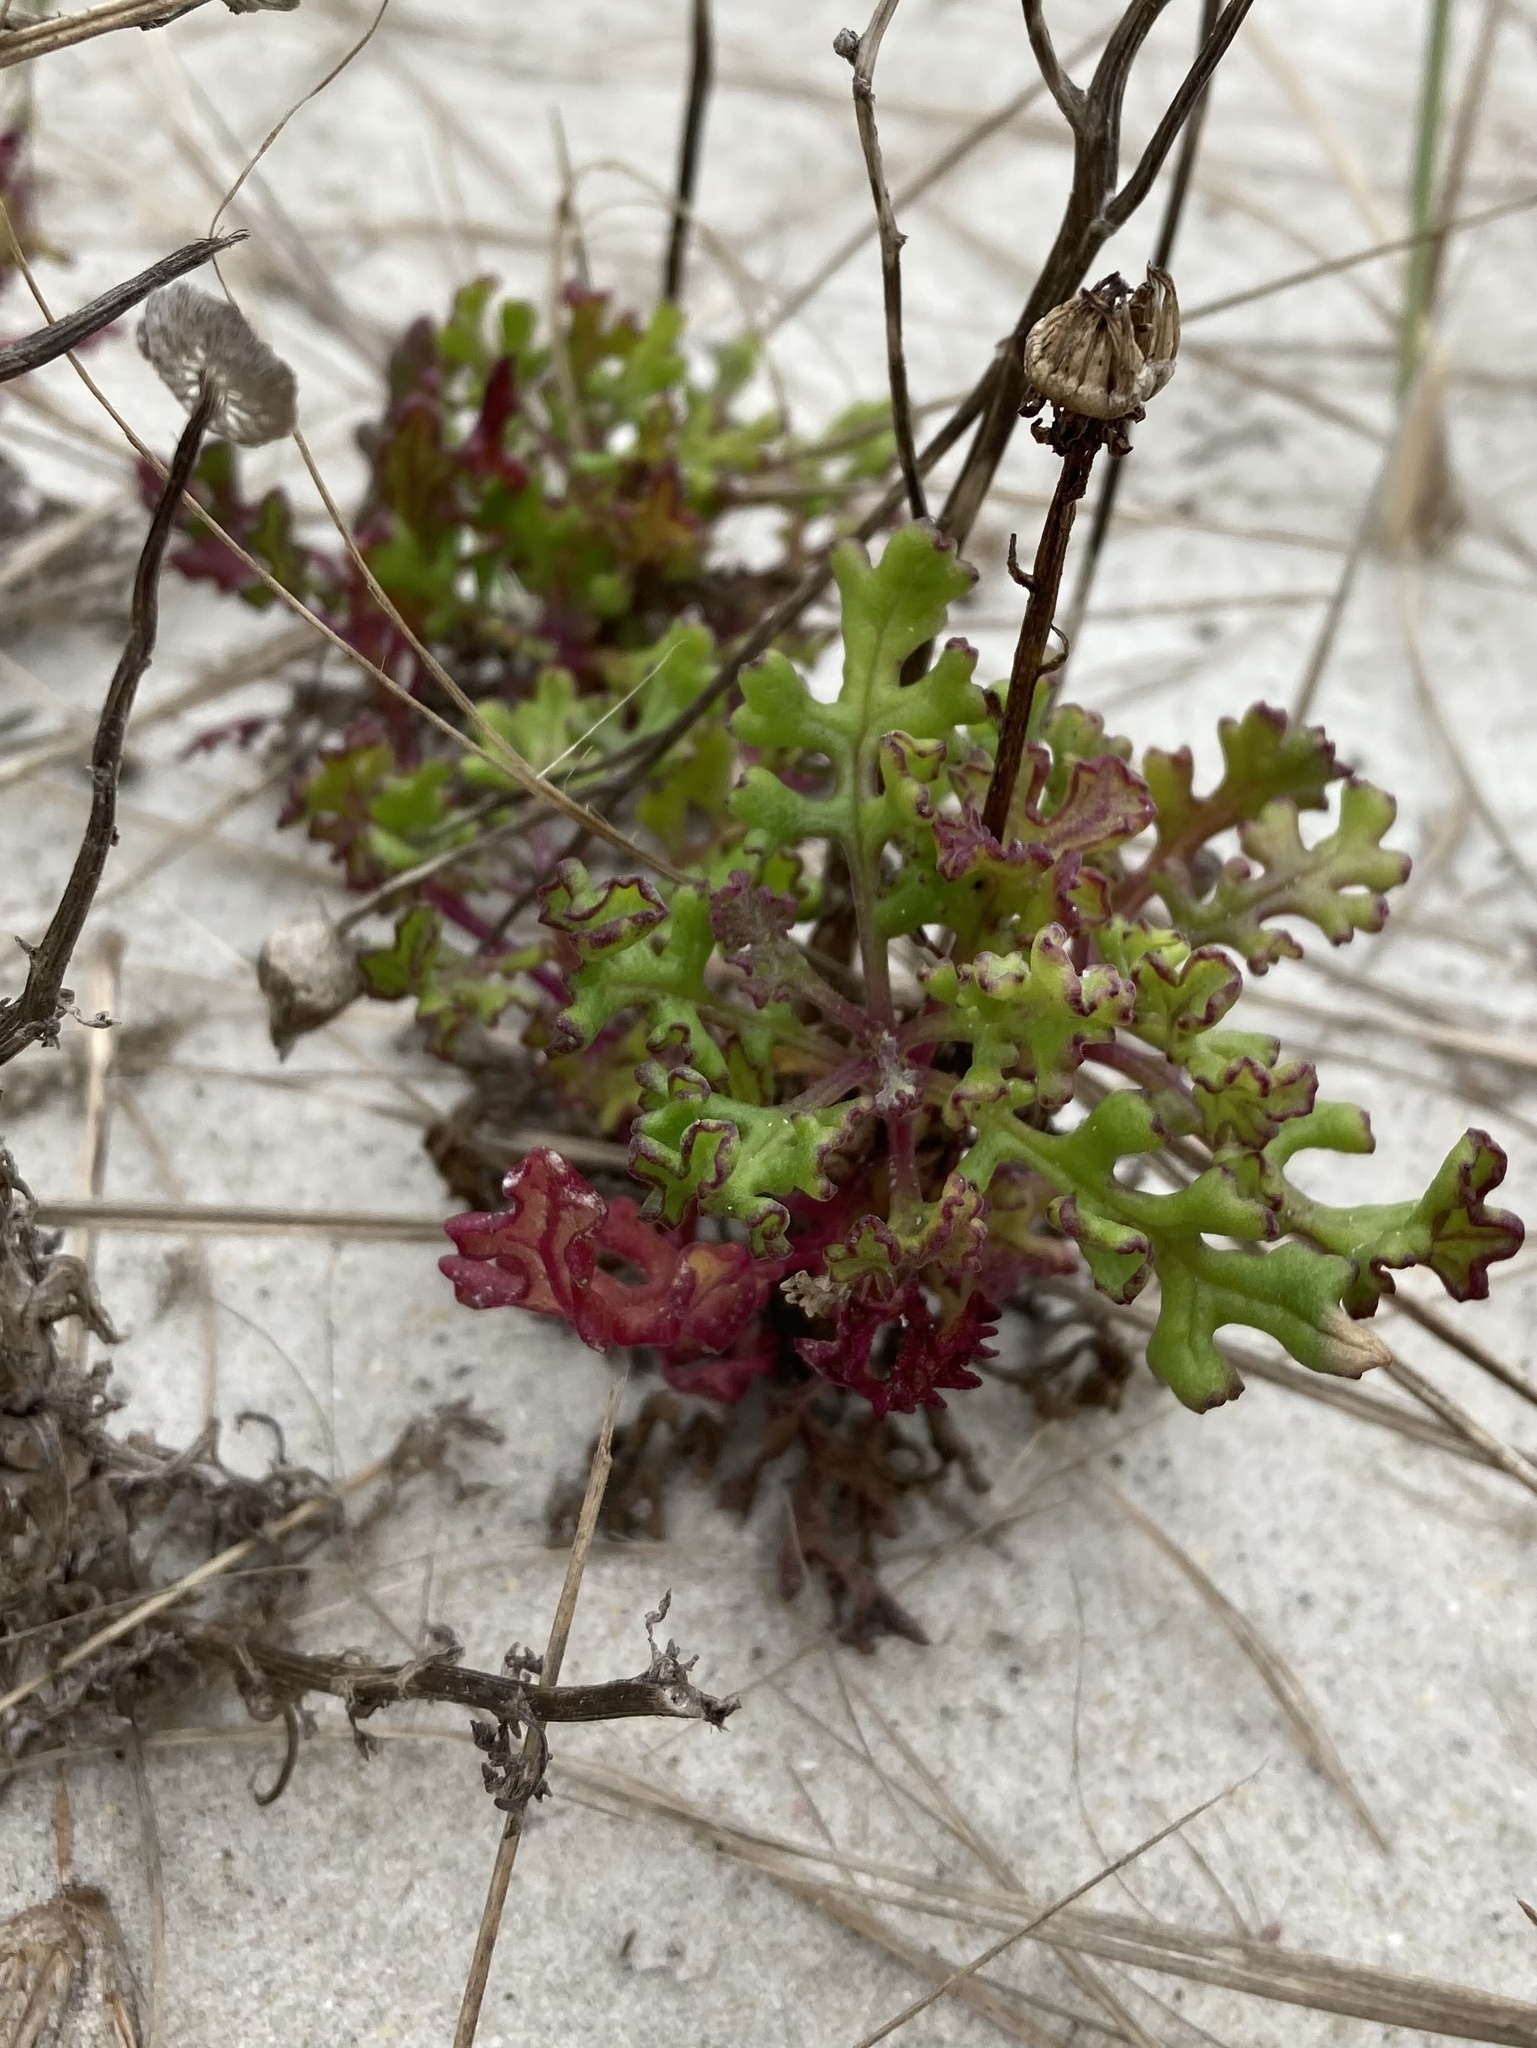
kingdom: Plantae
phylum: Tracheophyta
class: Magnoliopsida
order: Asterales
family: Asteraceae
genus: Senecio
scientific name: Senecio elegans
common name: Purple groundsel
